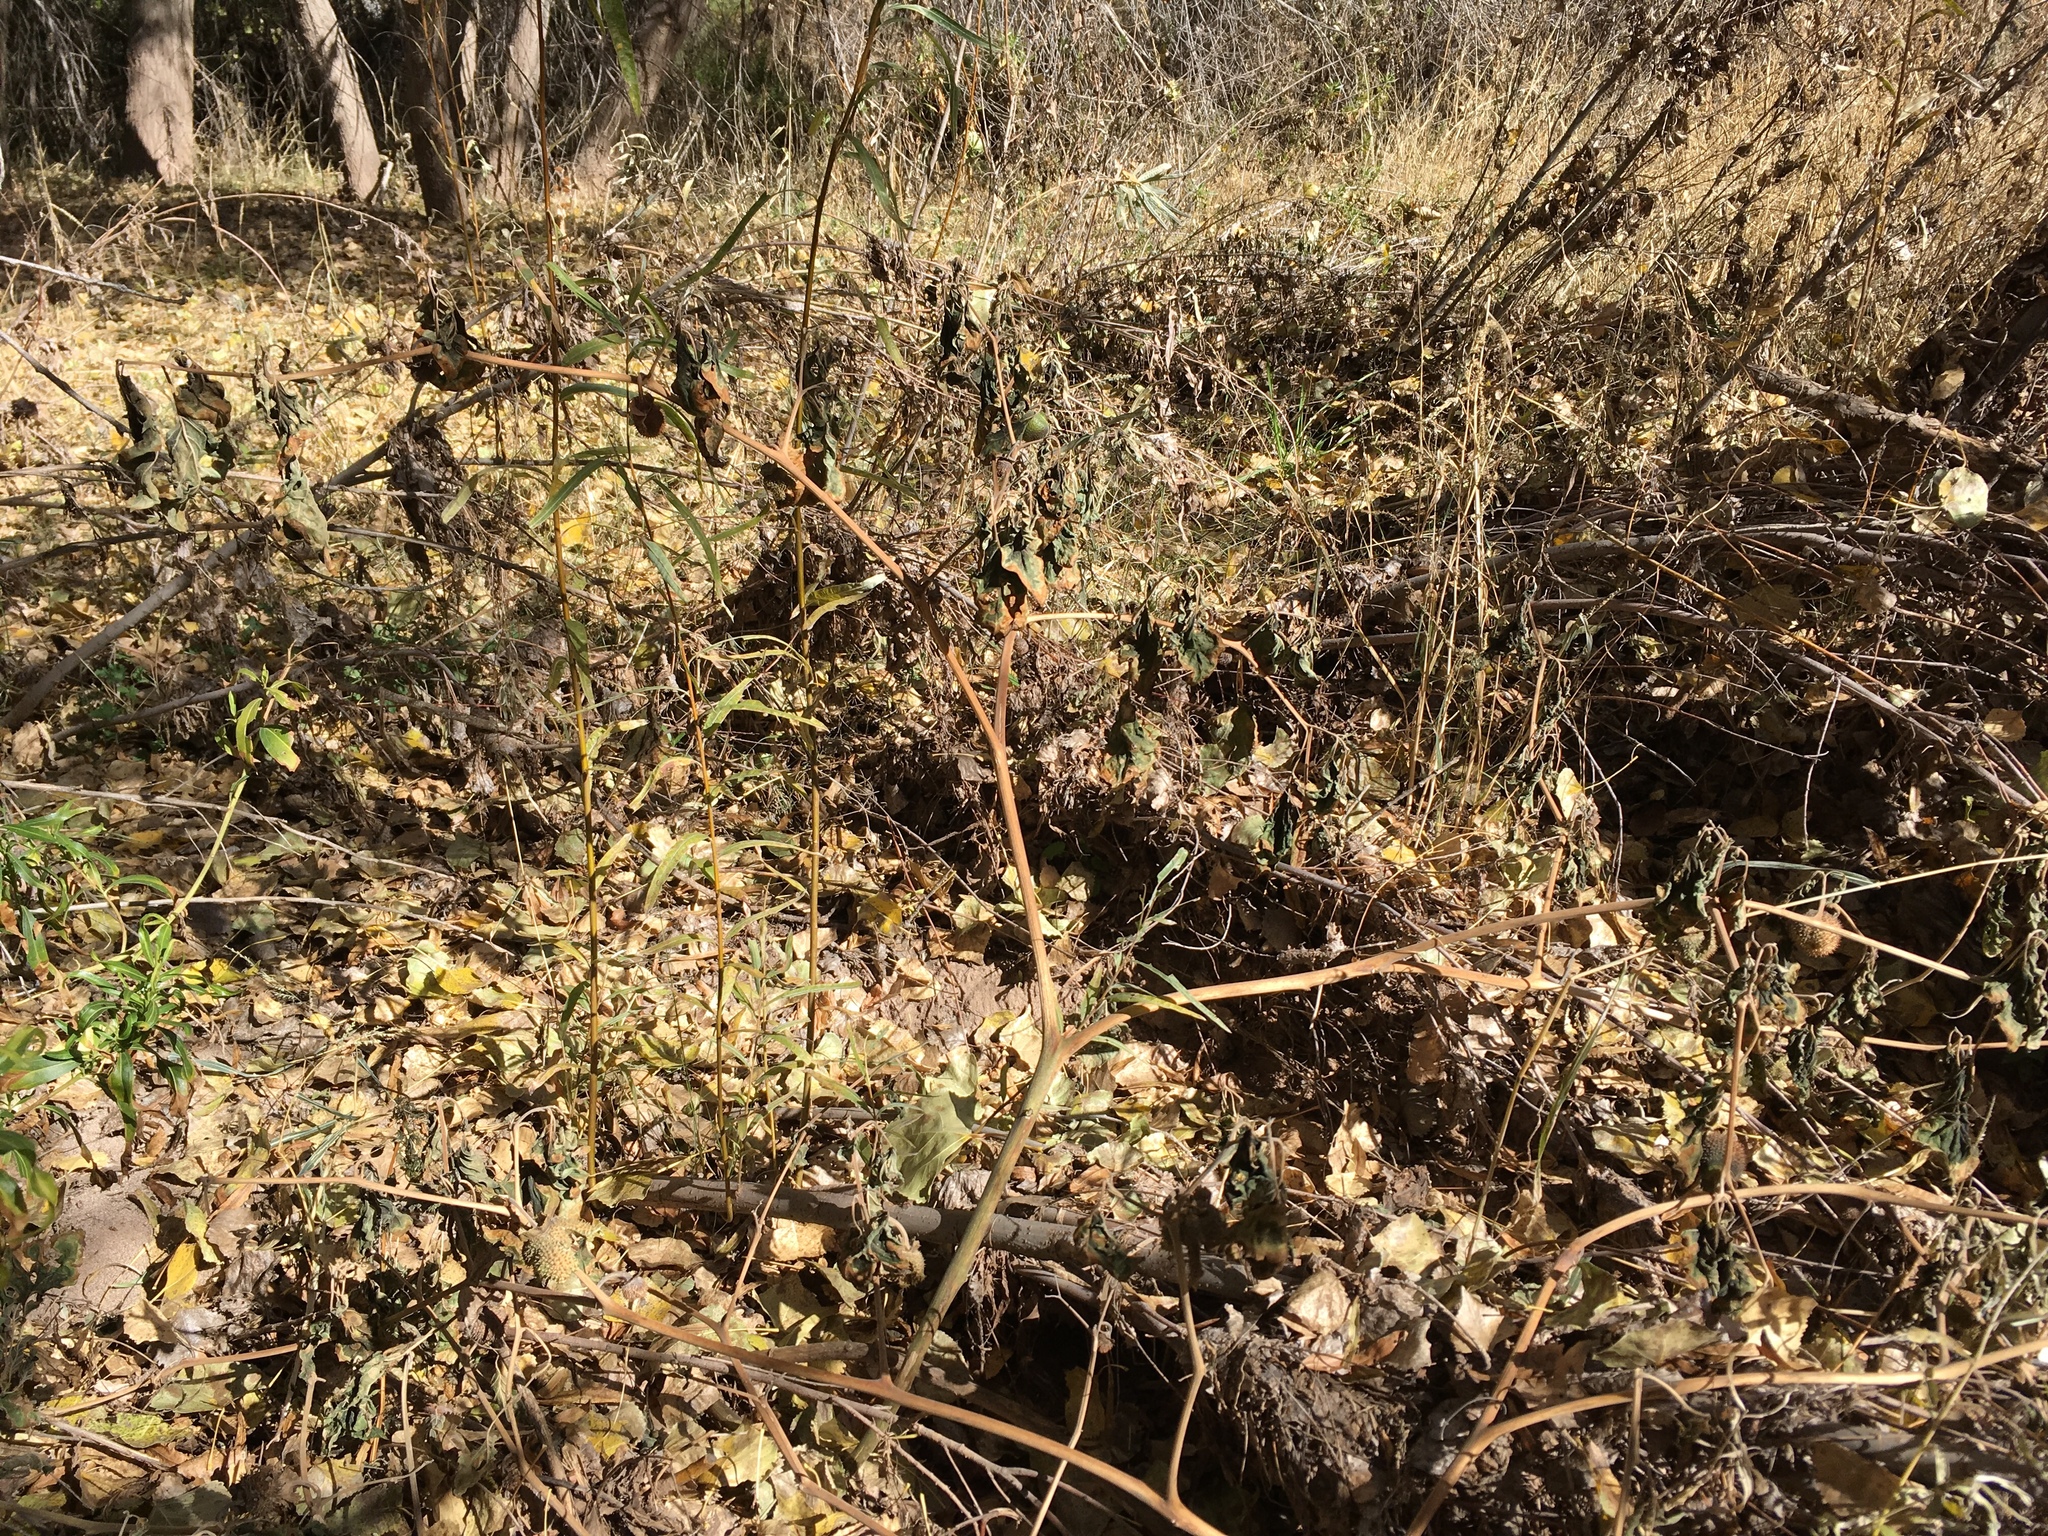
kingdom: Plantae
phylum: Tracheophyta
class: Magnoliopsida
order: Solanales
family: Solanaceae
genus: Datura
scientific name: Datura wrightii
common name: Sacred thorn-apple
